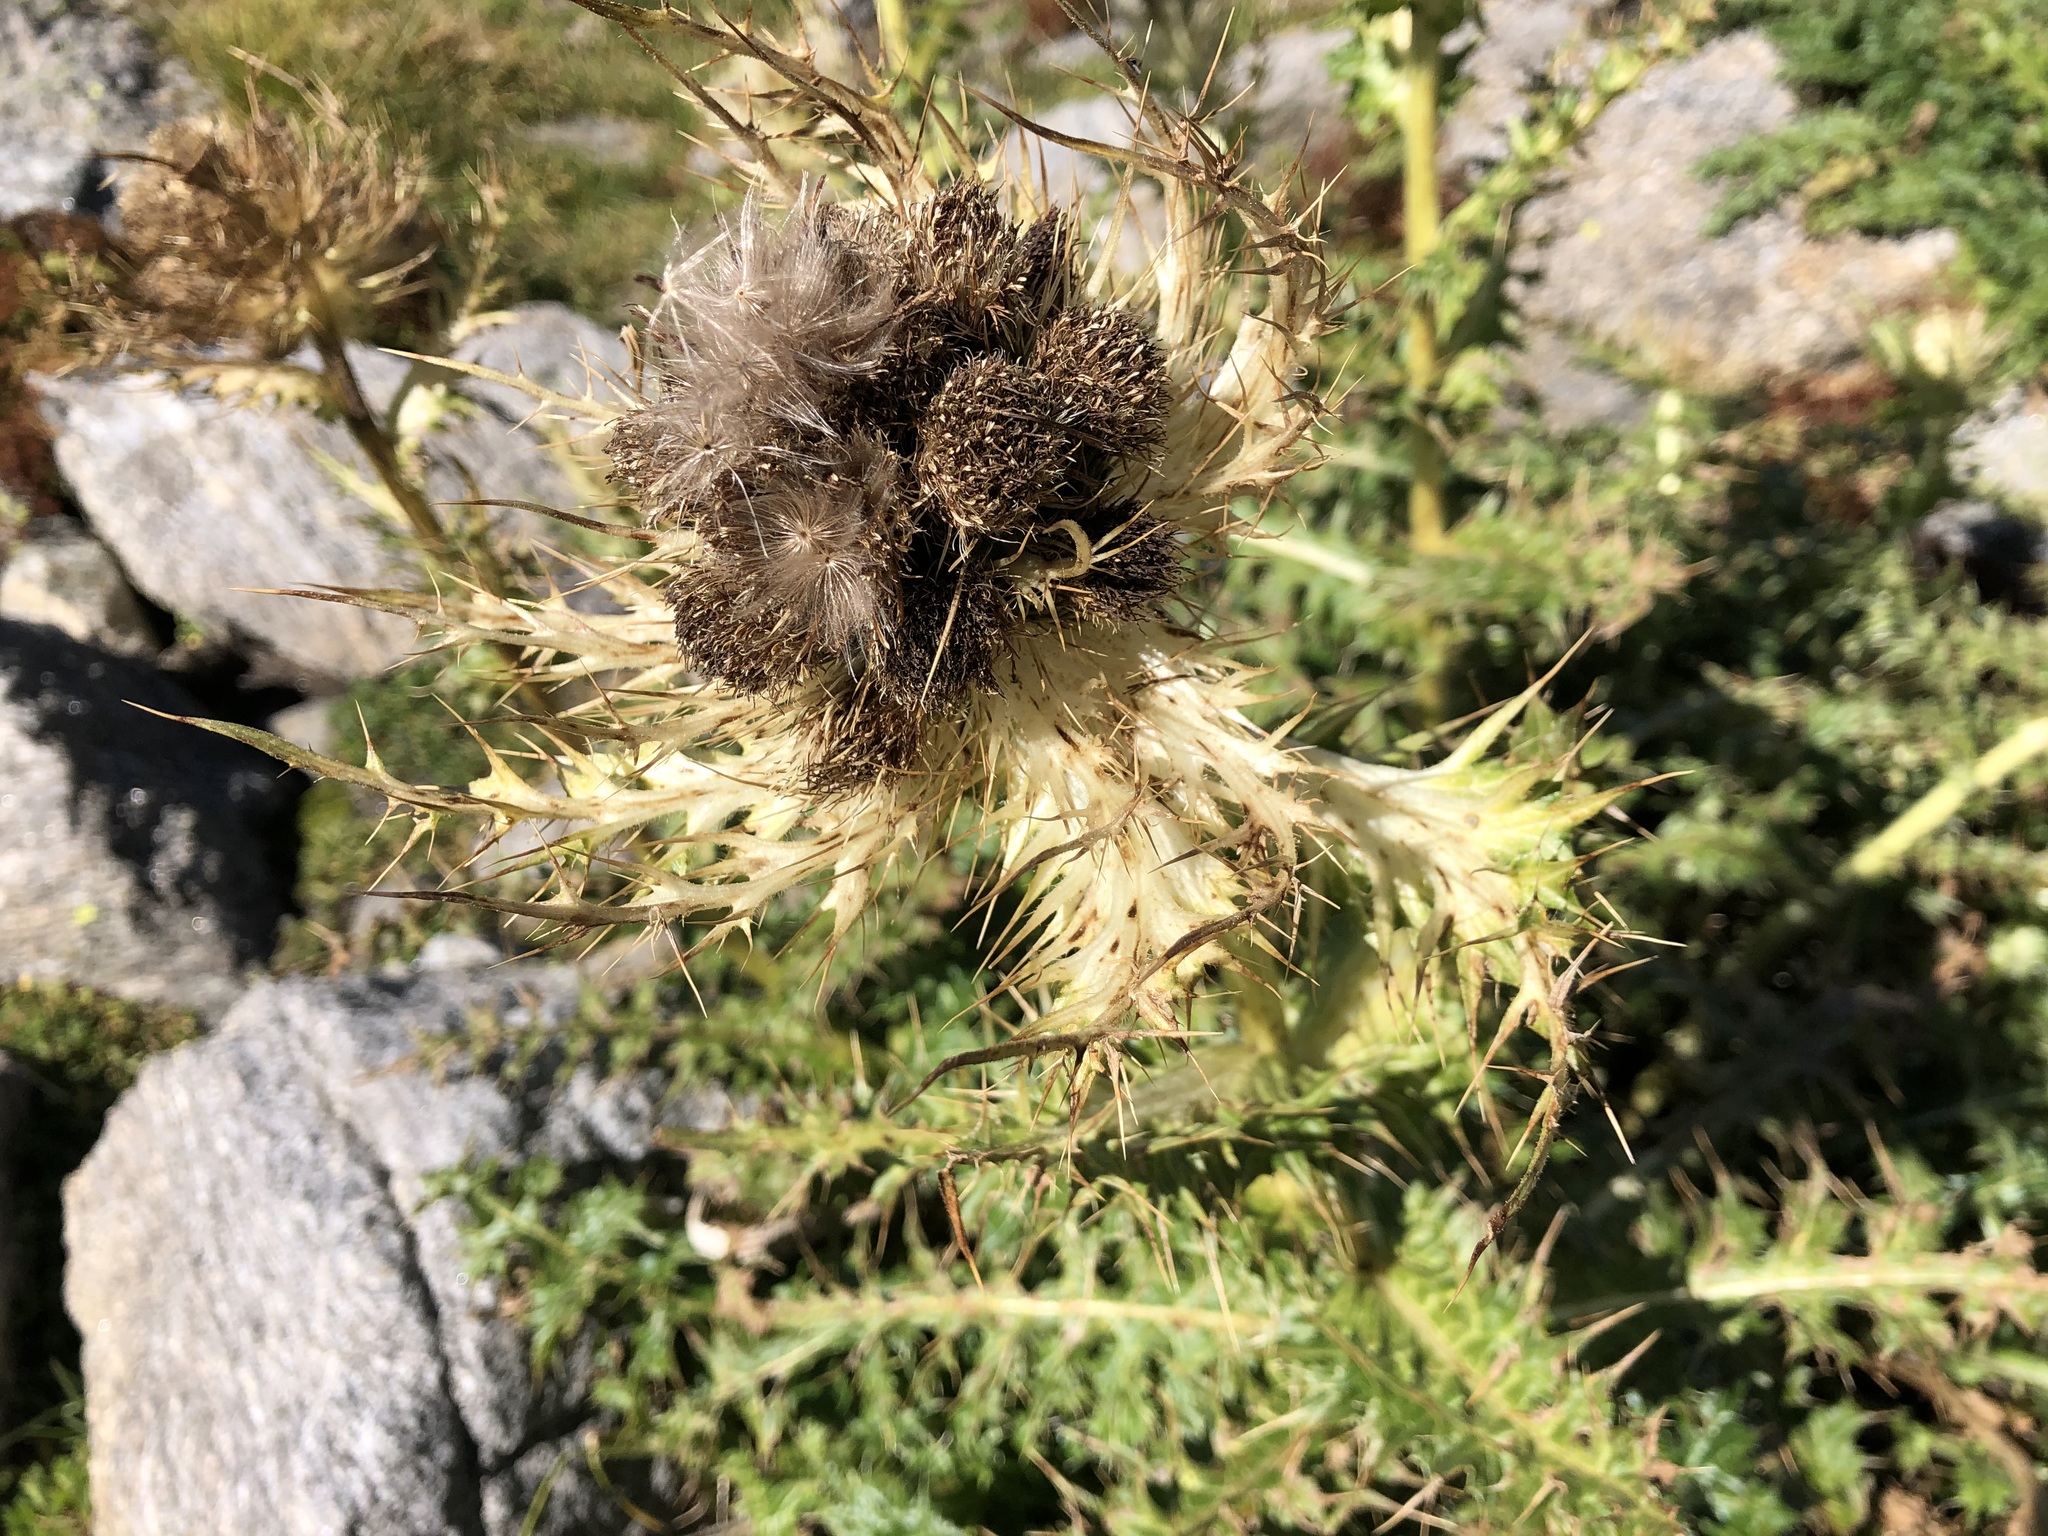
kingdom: Plantae
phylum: Tracheophyta
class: Magnoliopsida
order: Asterales
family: Asteraceae
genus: Cirsium
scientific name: Cirsium spinosissimum
